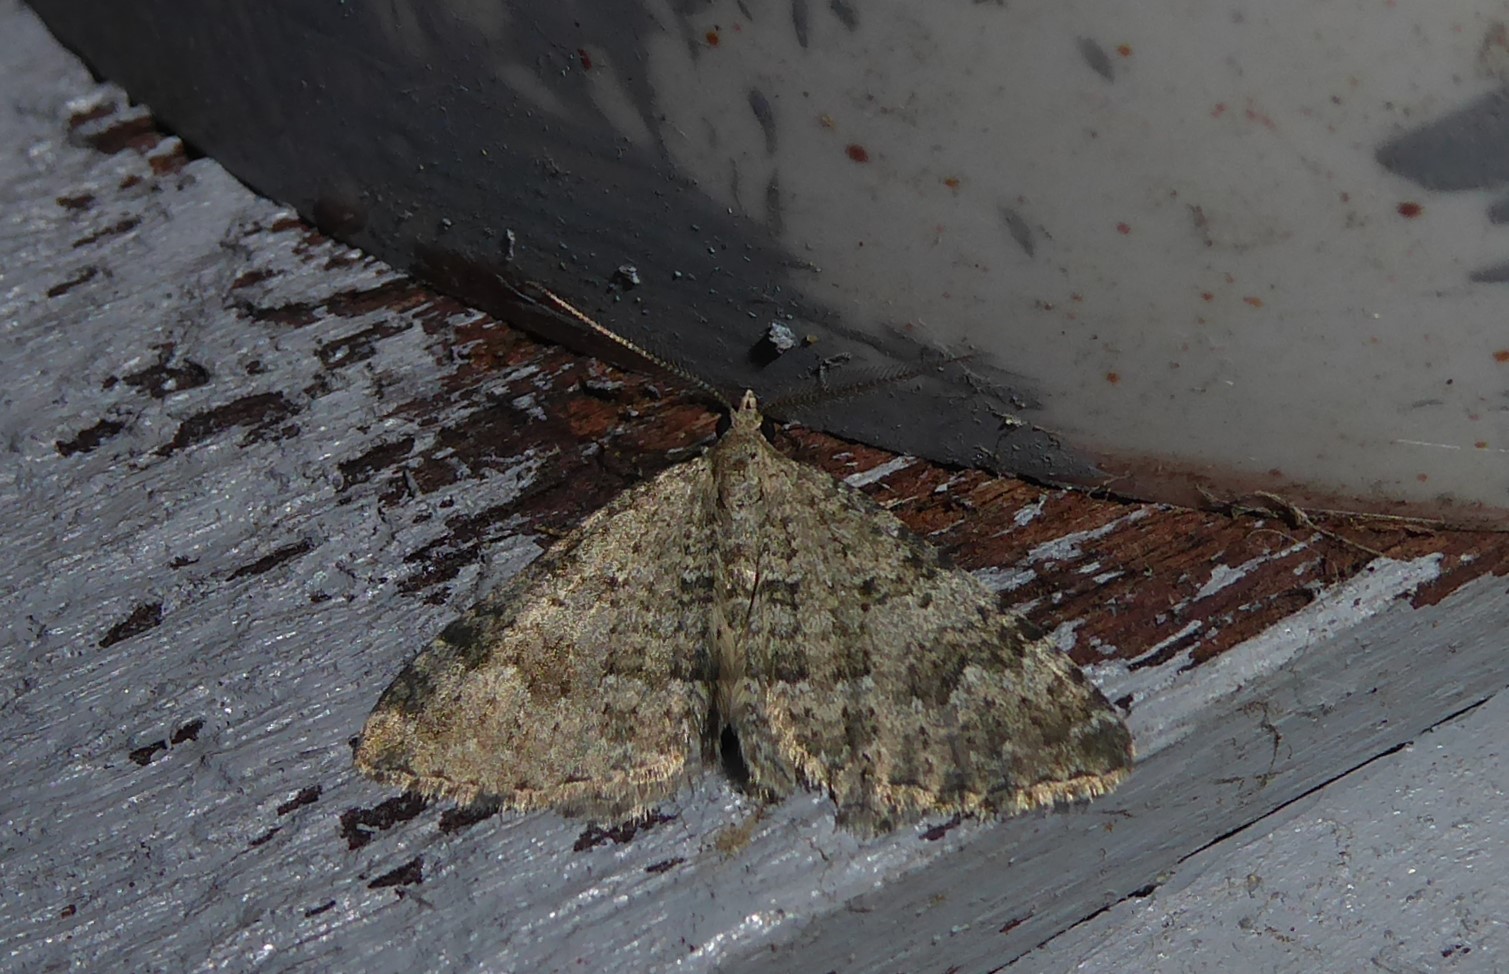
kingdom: Animalia
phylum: Arthropoda
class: Insecta
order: Lepidoptera
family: Geometridae
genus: Helastia
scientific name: Helastia corcularia
